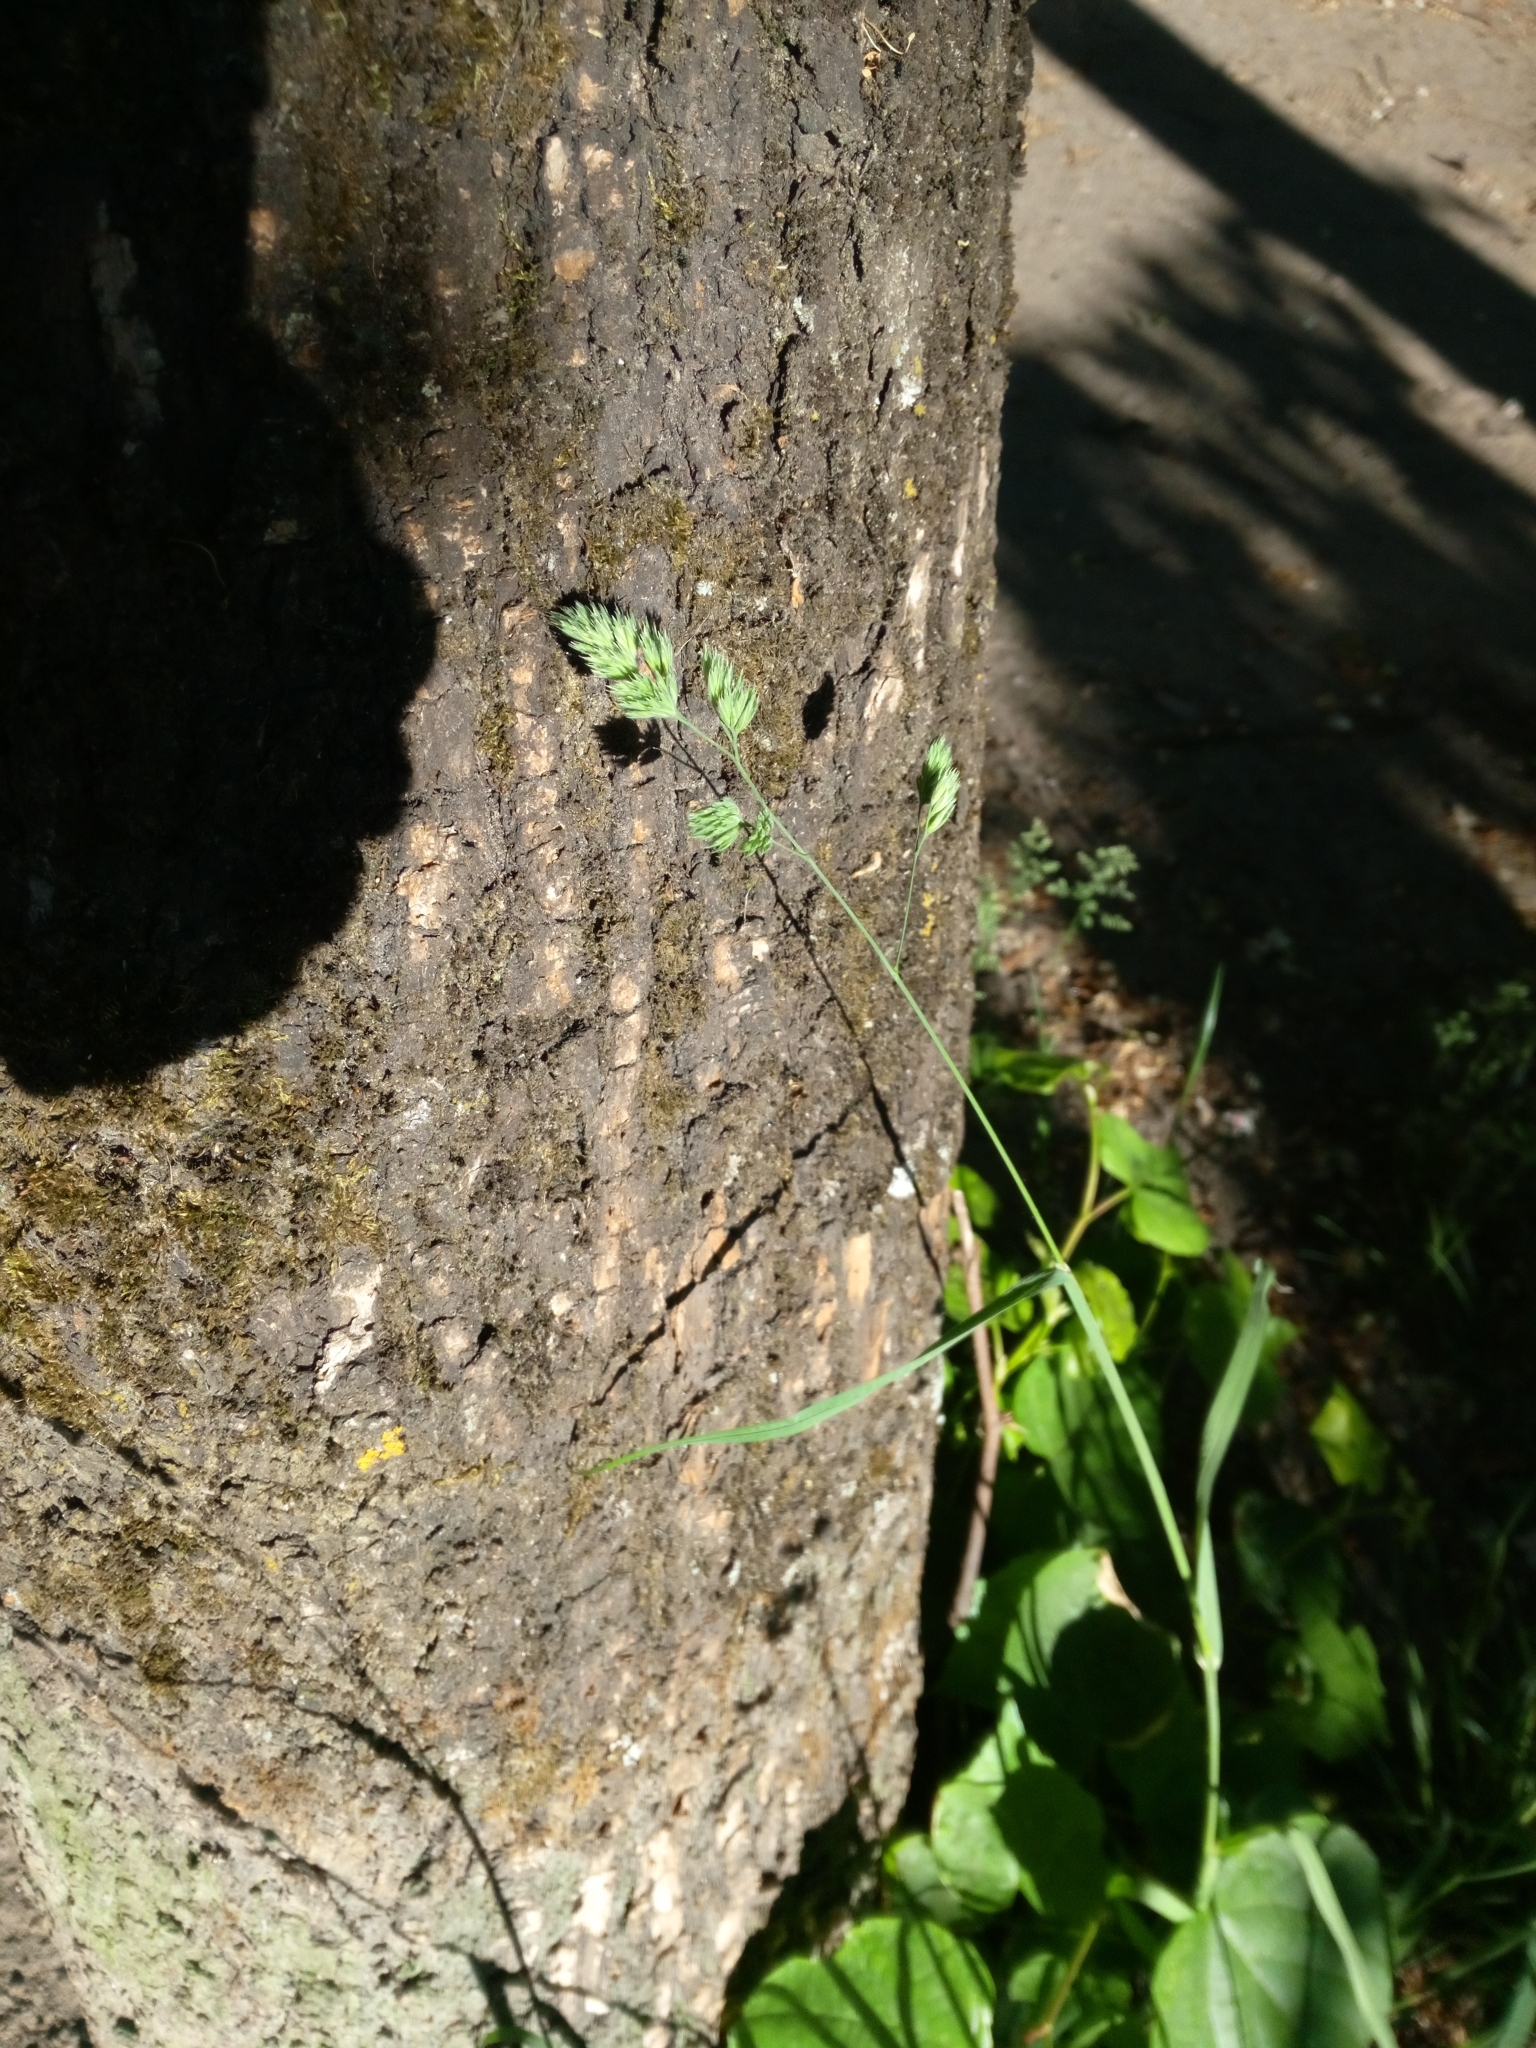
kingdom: Plantae
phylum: Tracheophyta
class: Liliopsida
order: Poales
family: Poaceae
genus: Dactylis
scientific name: Dactylis glomerata
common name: Orchardgrass
